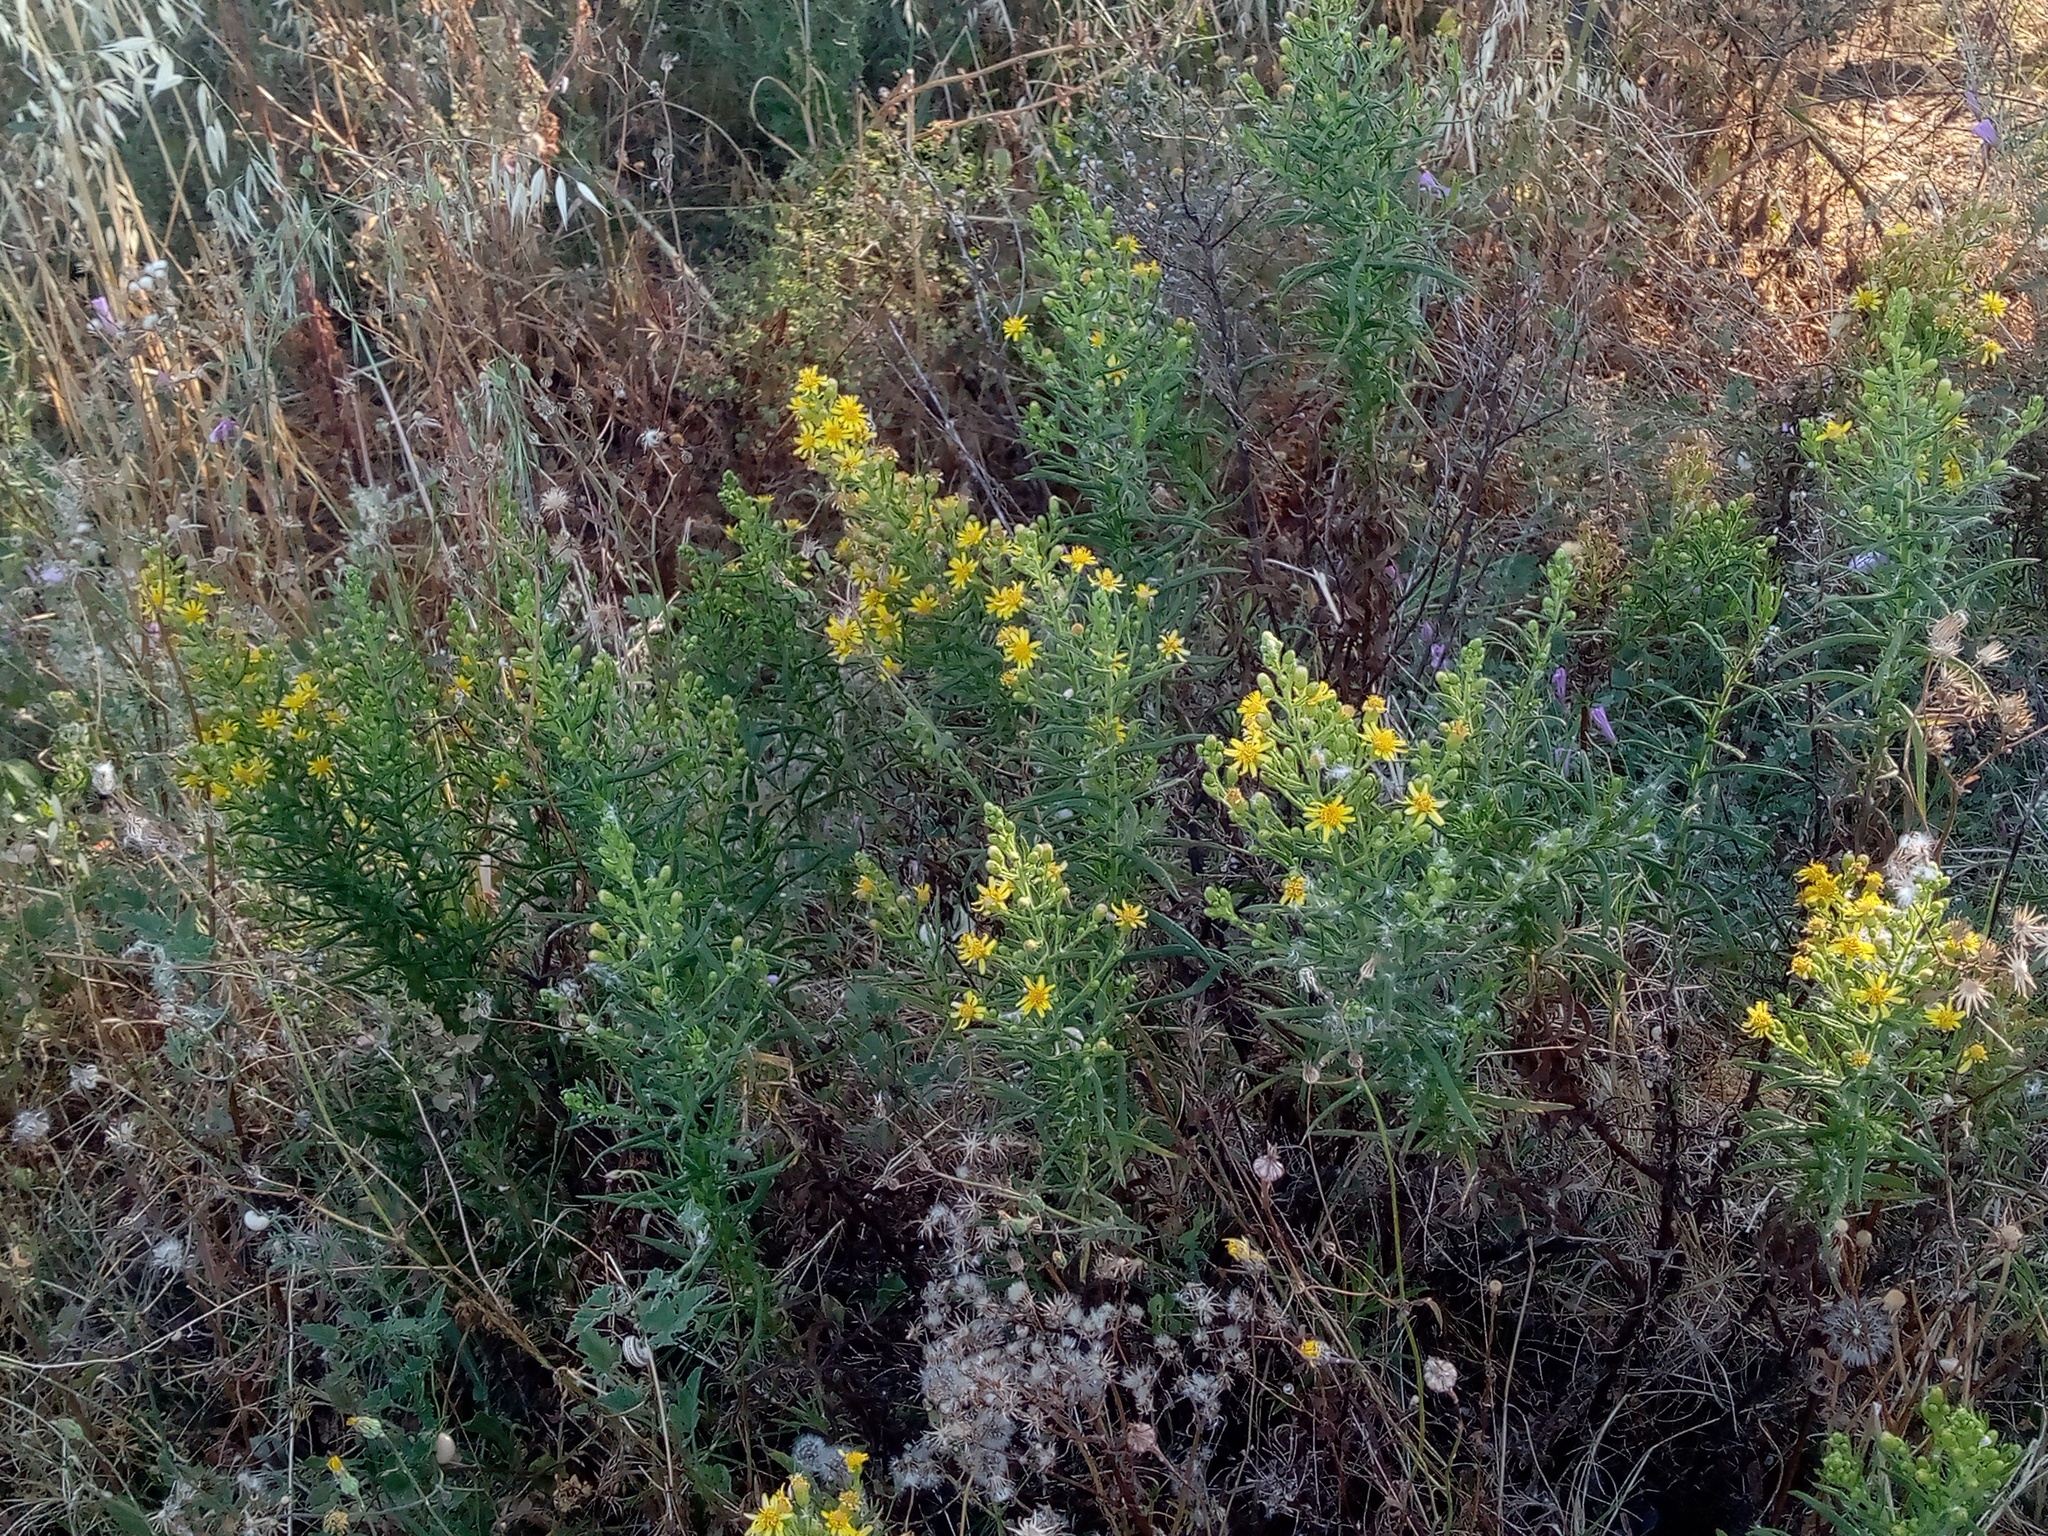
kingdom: Plantae
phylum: Tracheophyta
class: Magnoliopsida
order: Asterales
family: Asteraceae
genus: Dittrichia
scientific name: Dittrichia viscosa
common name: Woody fleabane
